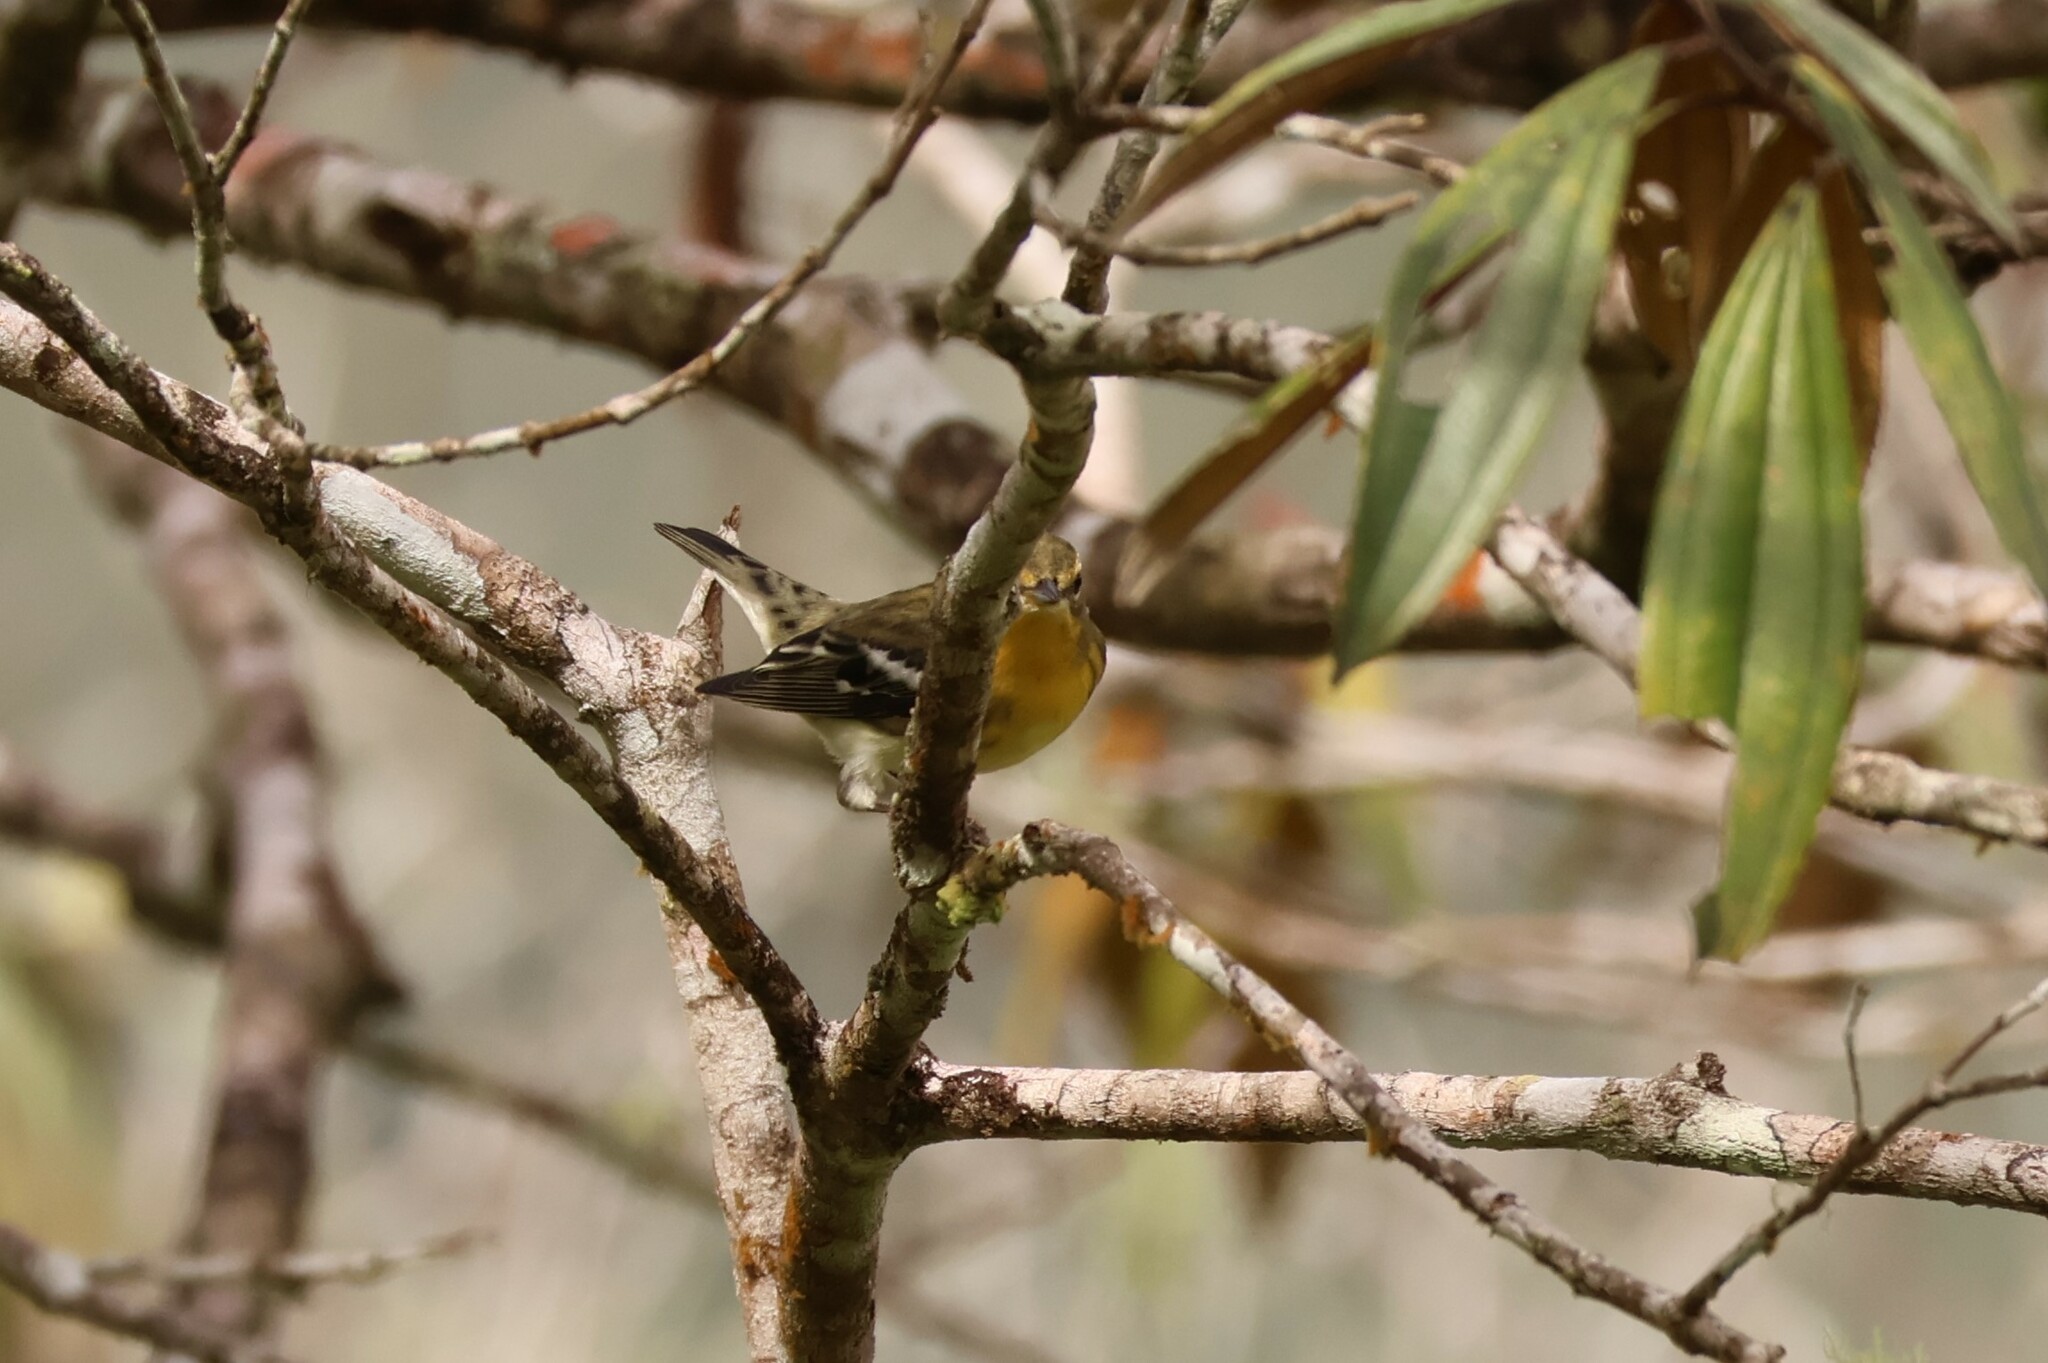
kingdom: Animalia
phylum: Chordata
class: Aves
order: Passeriformes
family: Parulidae
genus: Setophaga
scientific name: Setophaga fusca
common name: Blackburnian warbler
